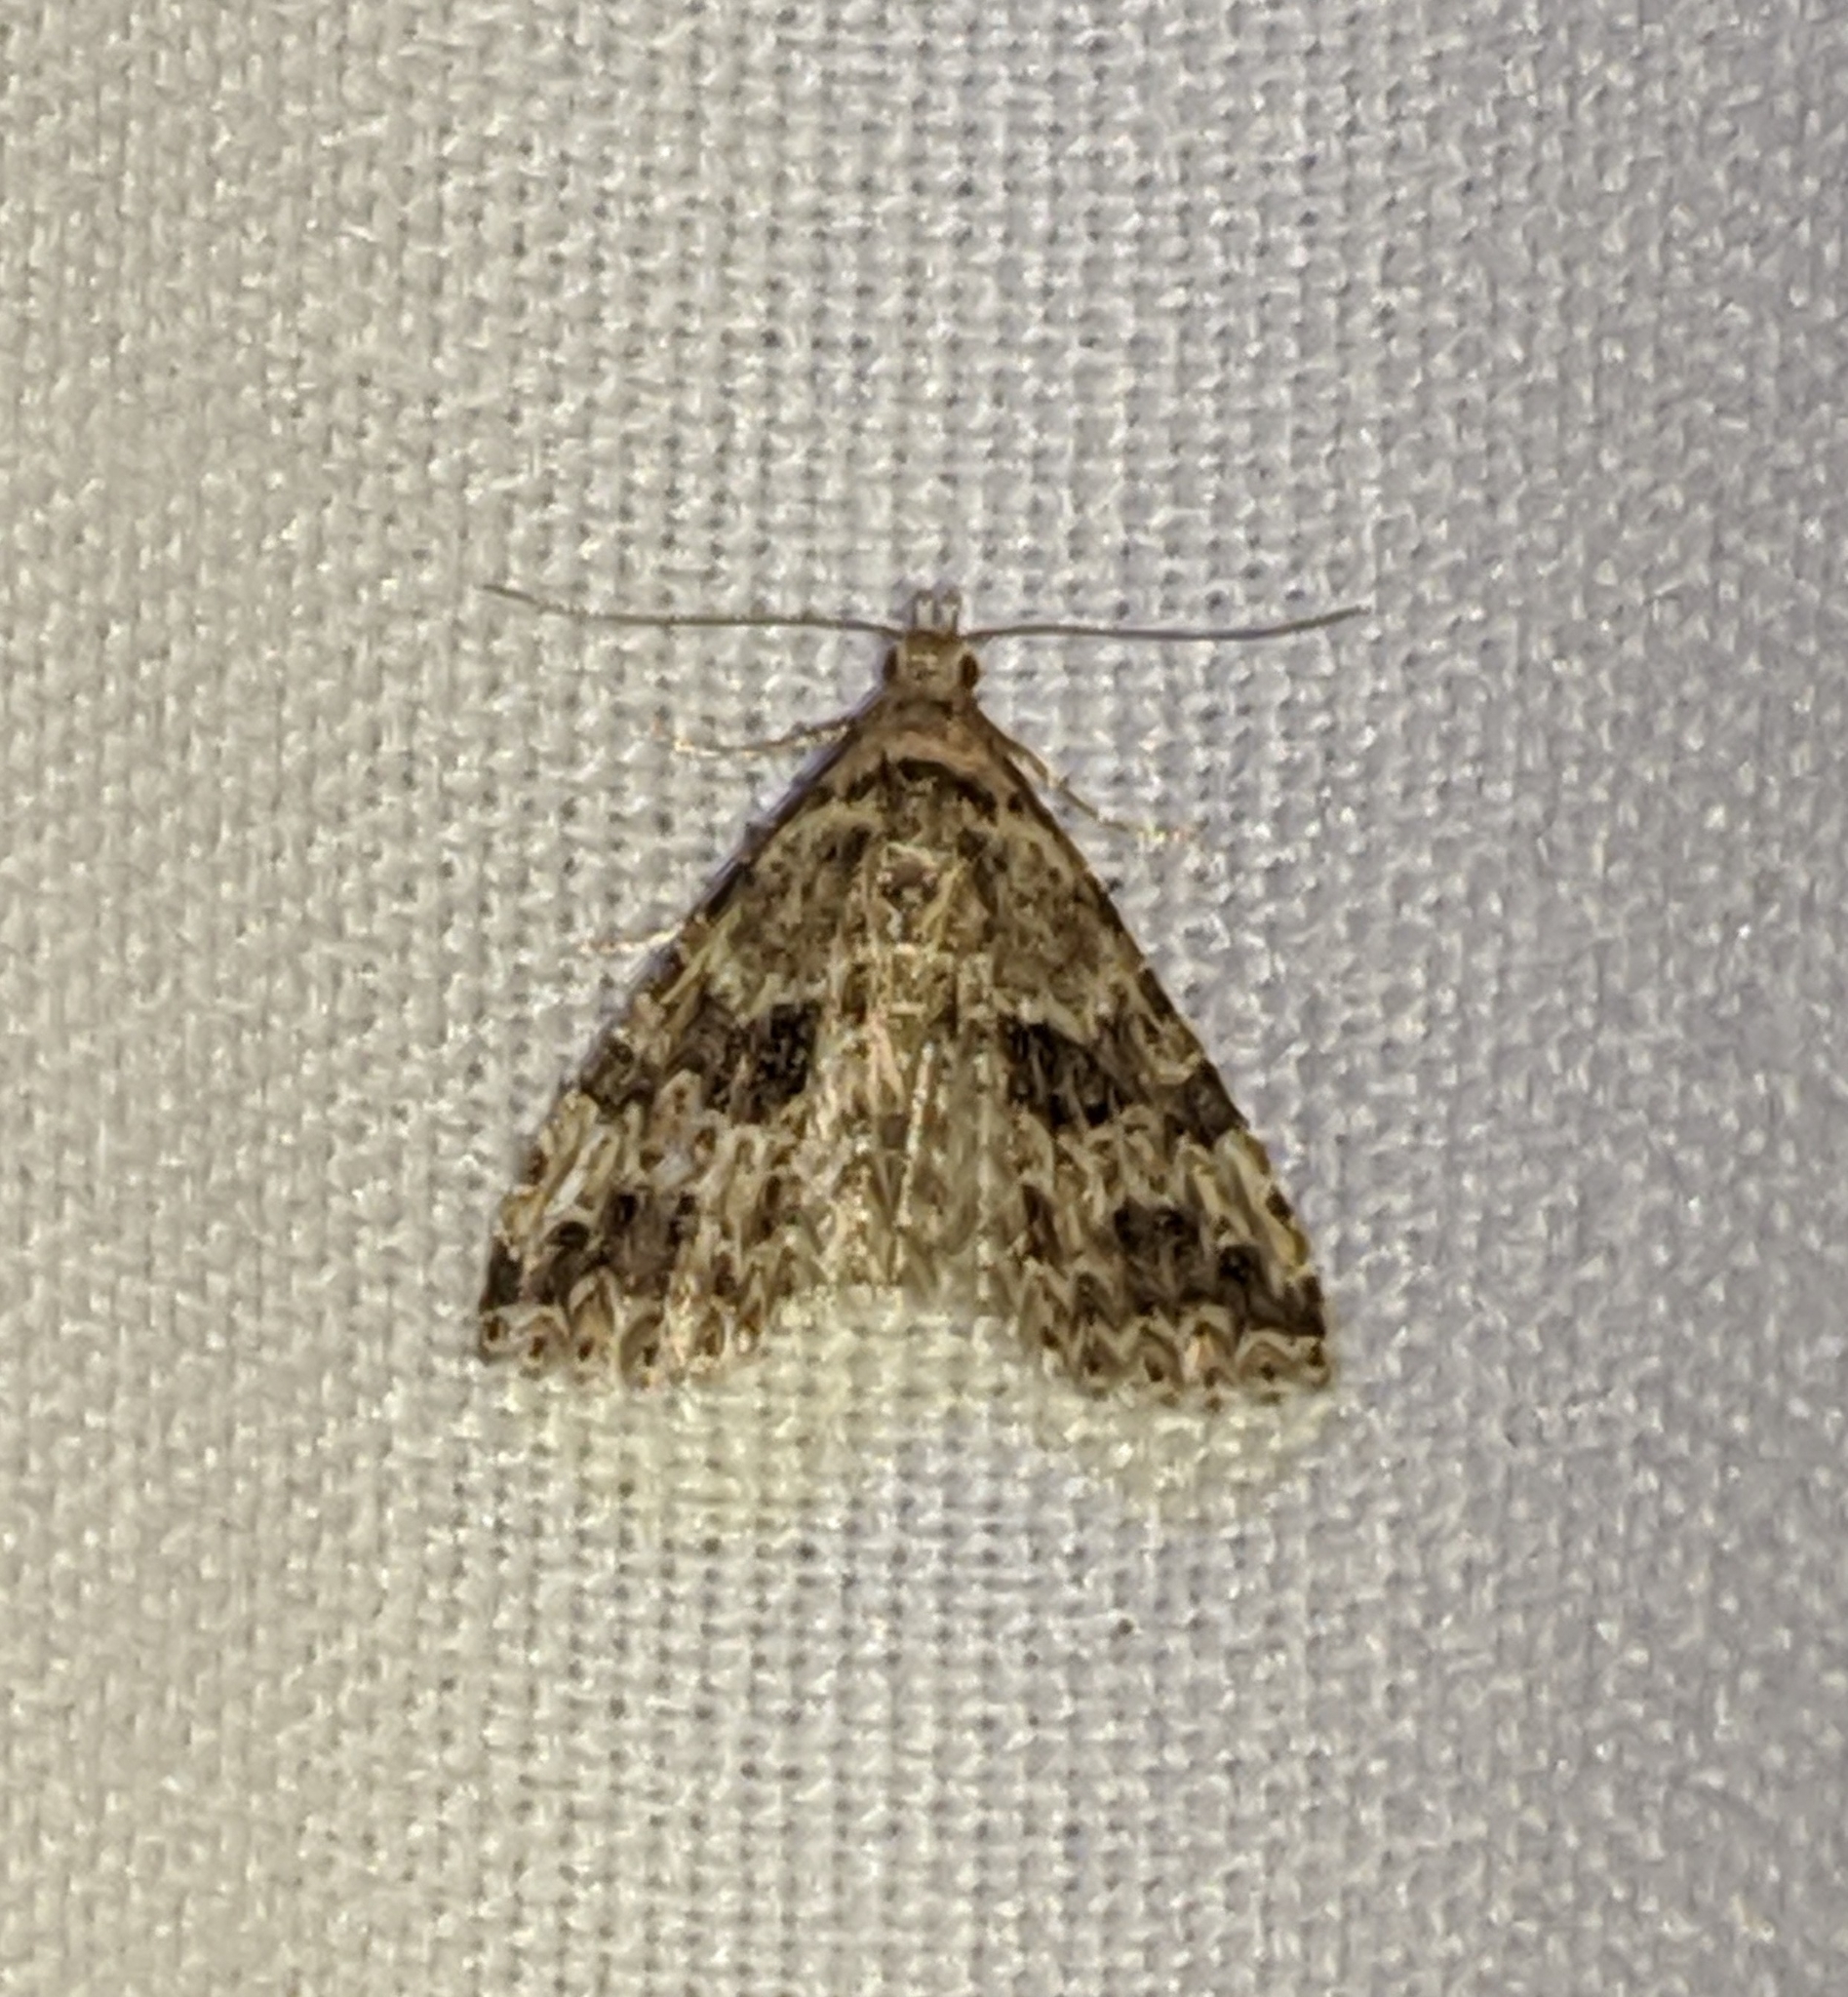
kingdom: Animalia
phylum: Arthropoda
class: Insecta
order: Lepidoptera
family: Alucitidae
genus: Alucita
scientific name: Alucita montana
